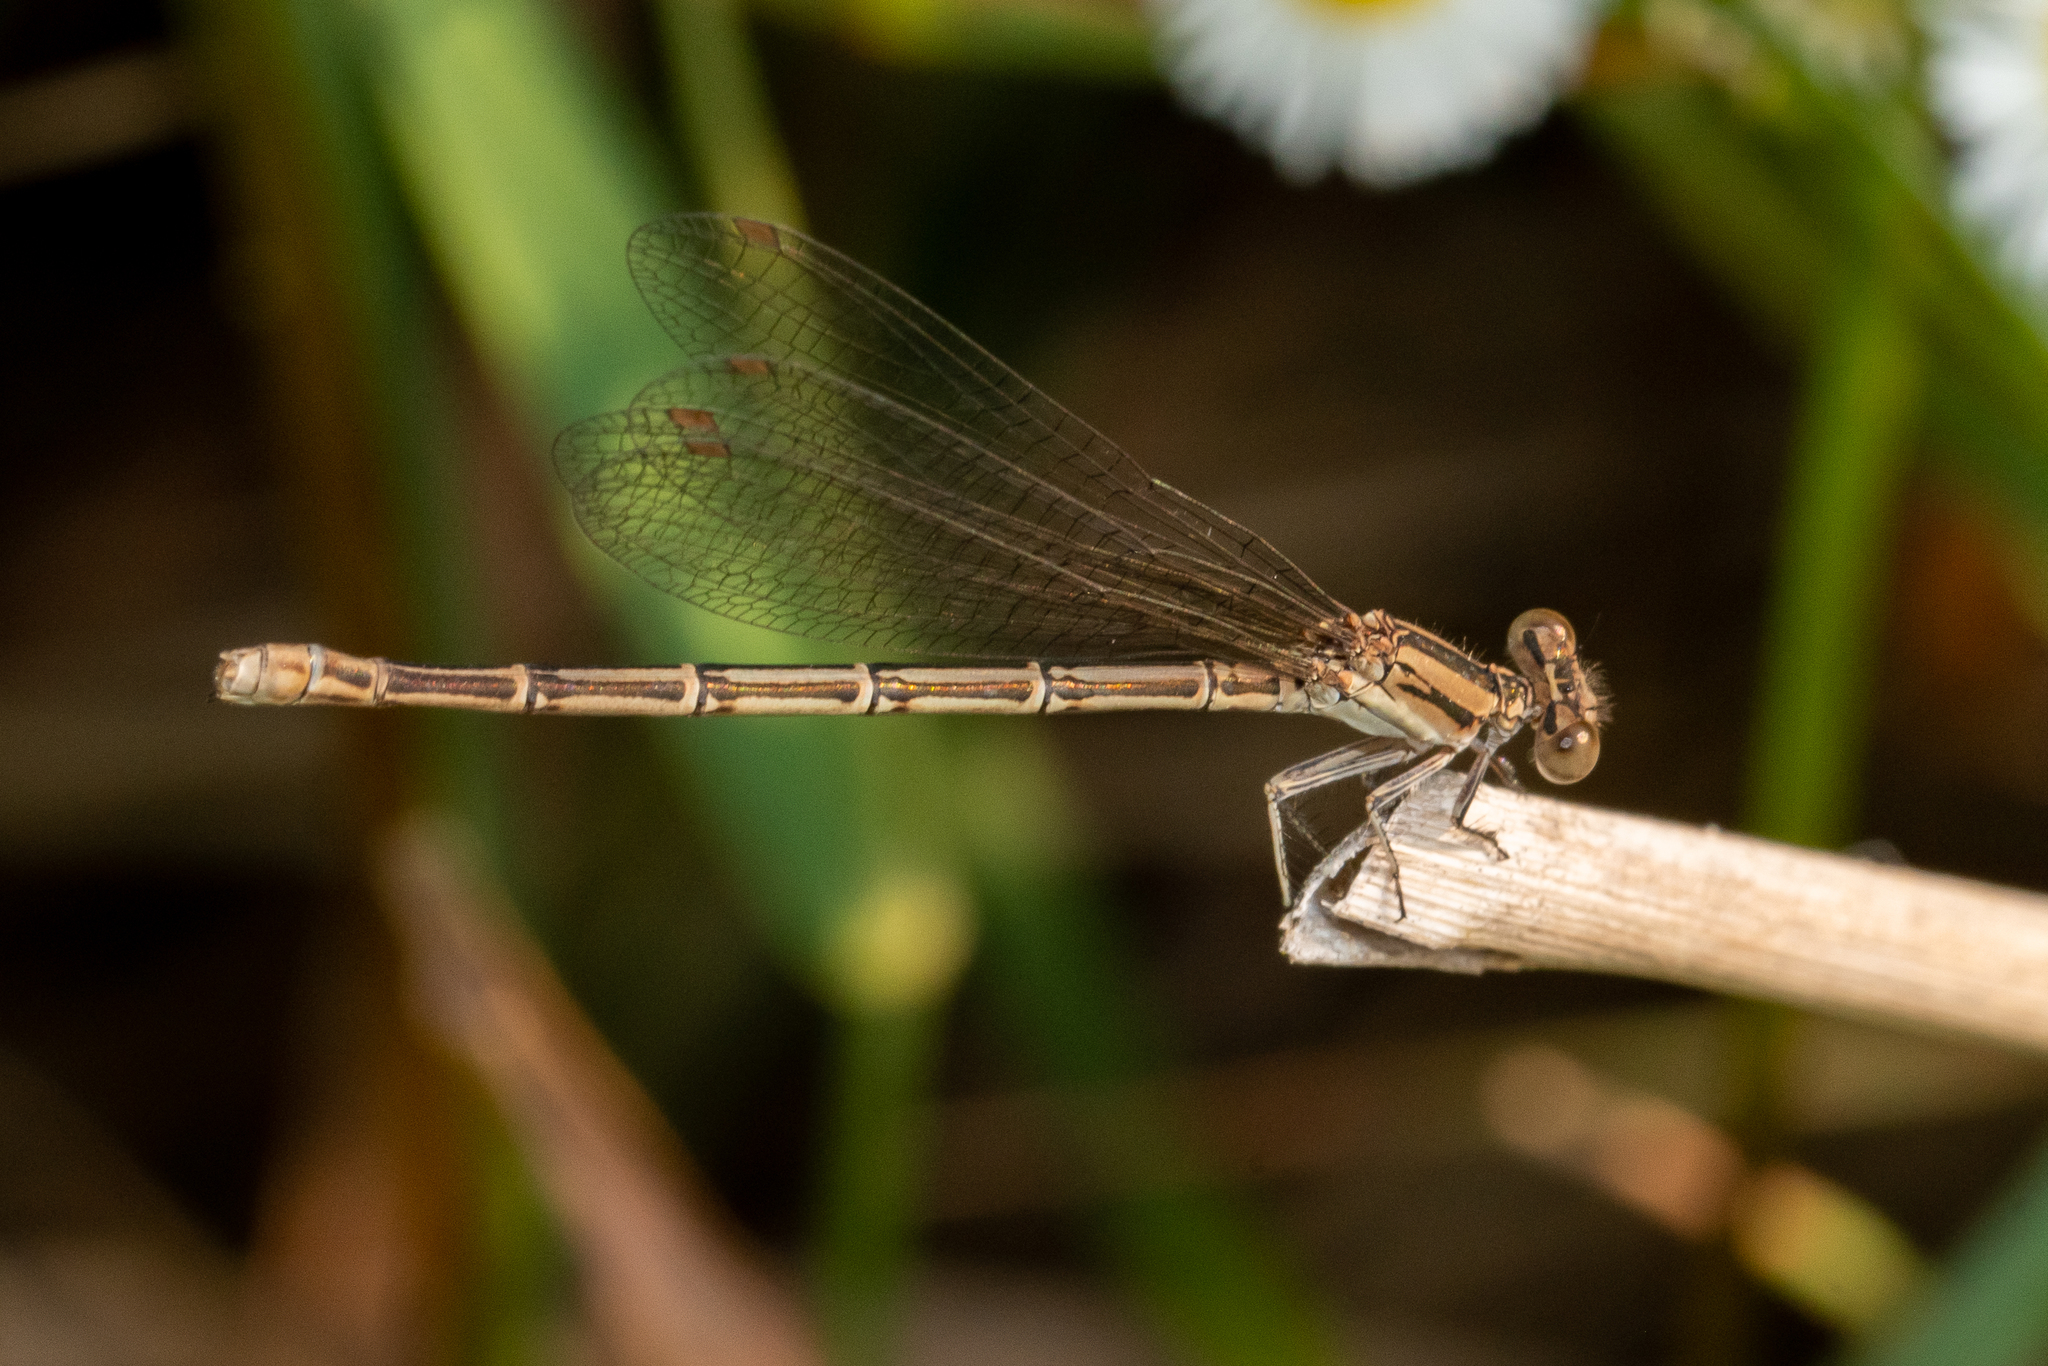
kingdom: Animalia
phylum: Arthropoda
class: Insecta
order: Odonata
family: Coenagrionidae
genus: Argia
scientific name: Argia fumipennis
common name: Variable dancer
